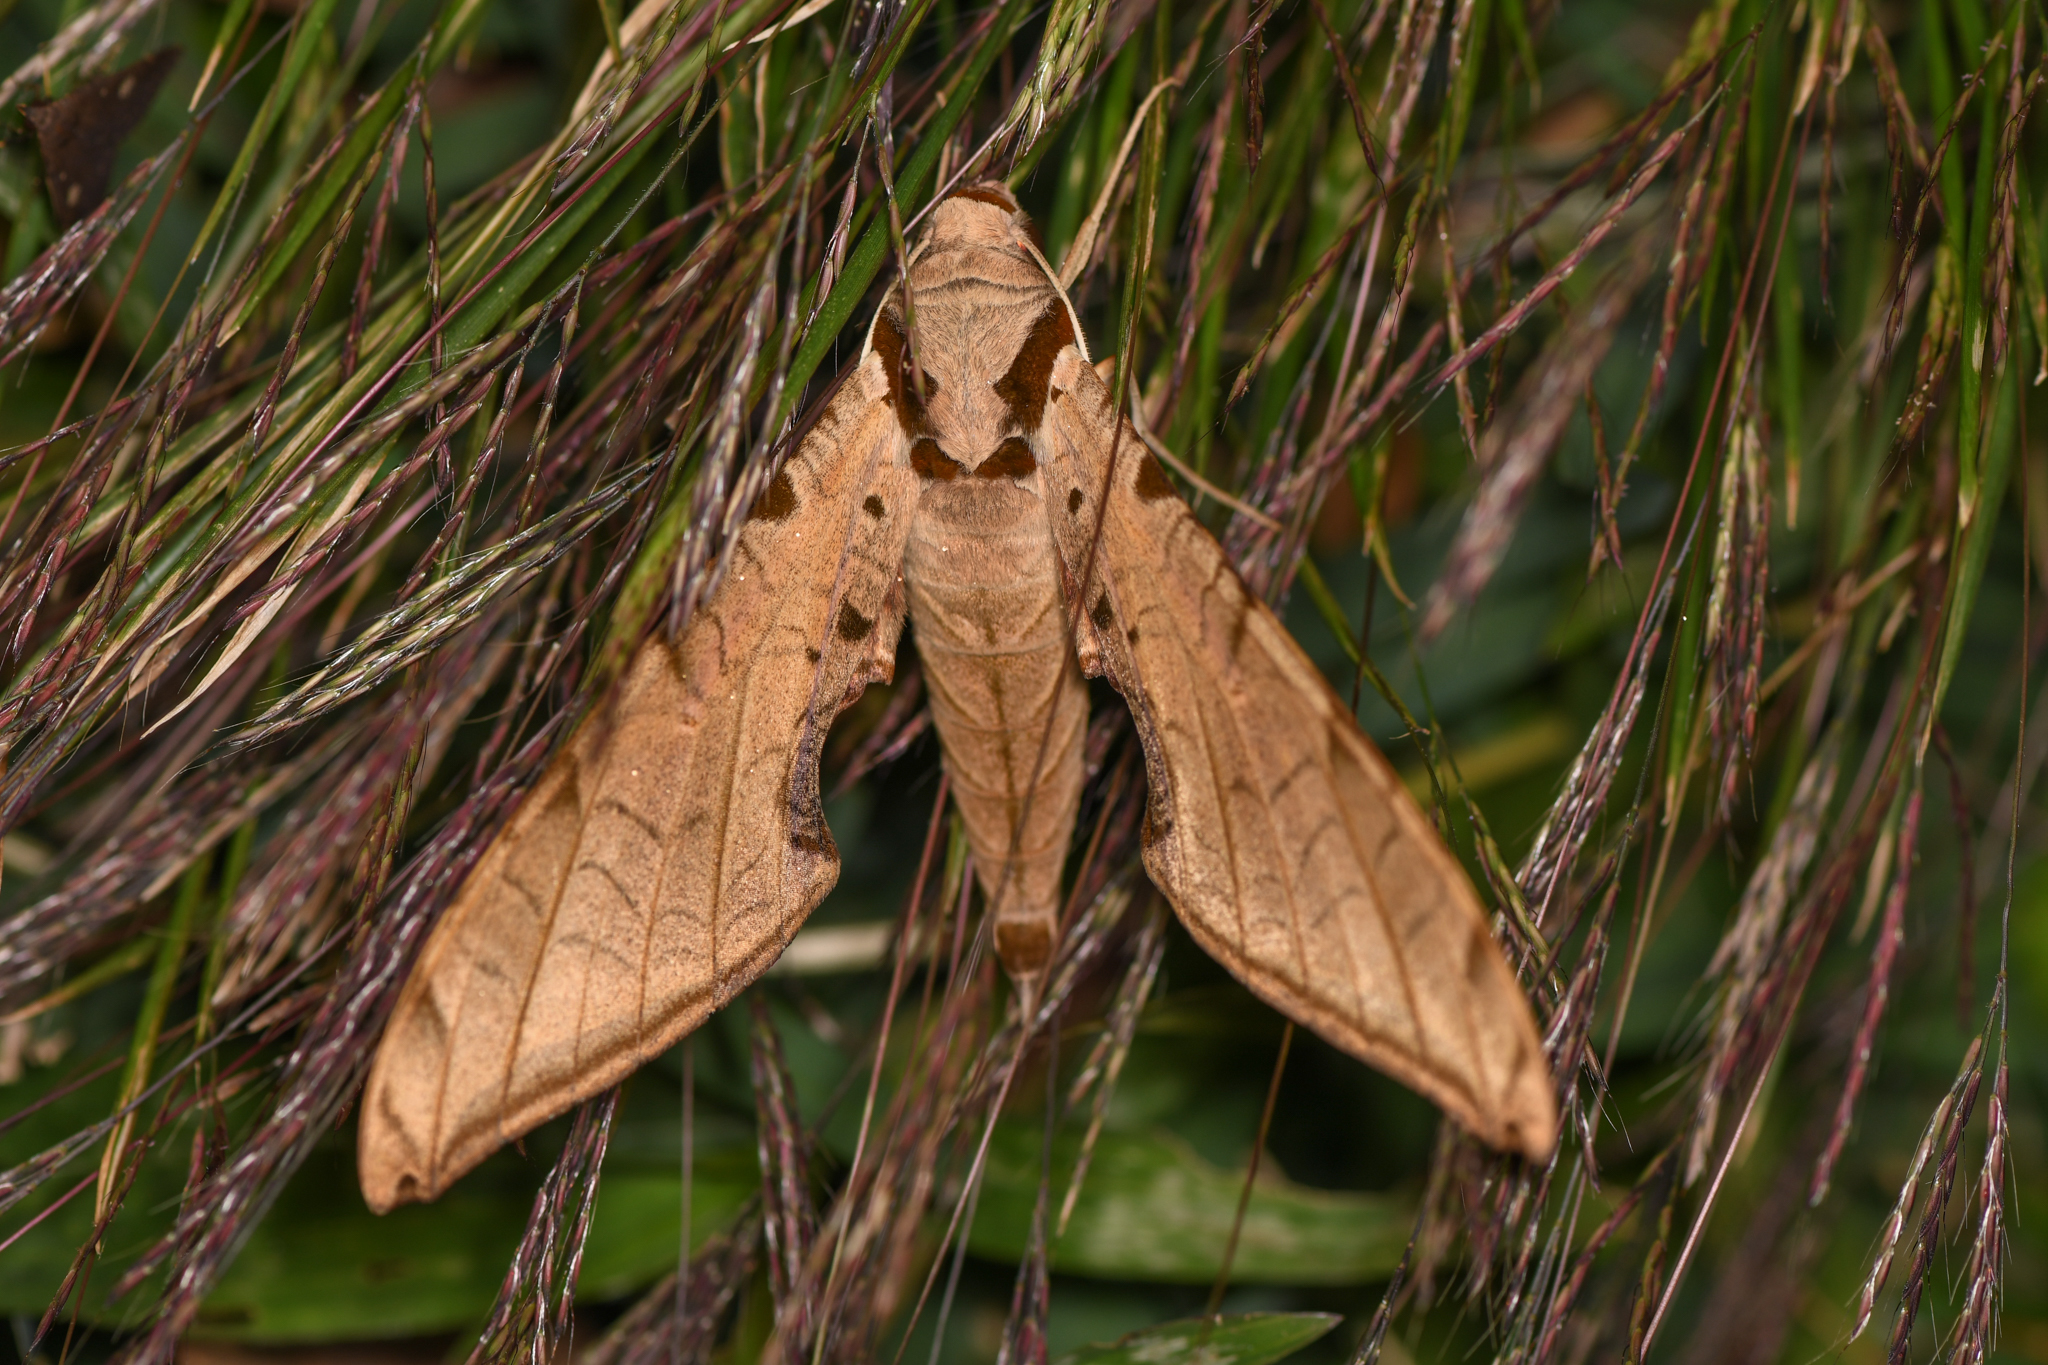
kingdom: Animalia
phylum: Arthropoda
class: Insecta
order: Lepidoptera
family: Sphingidae
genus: Protambulyx
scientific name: Protambulyx strigilis
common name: Streaked sphinx
